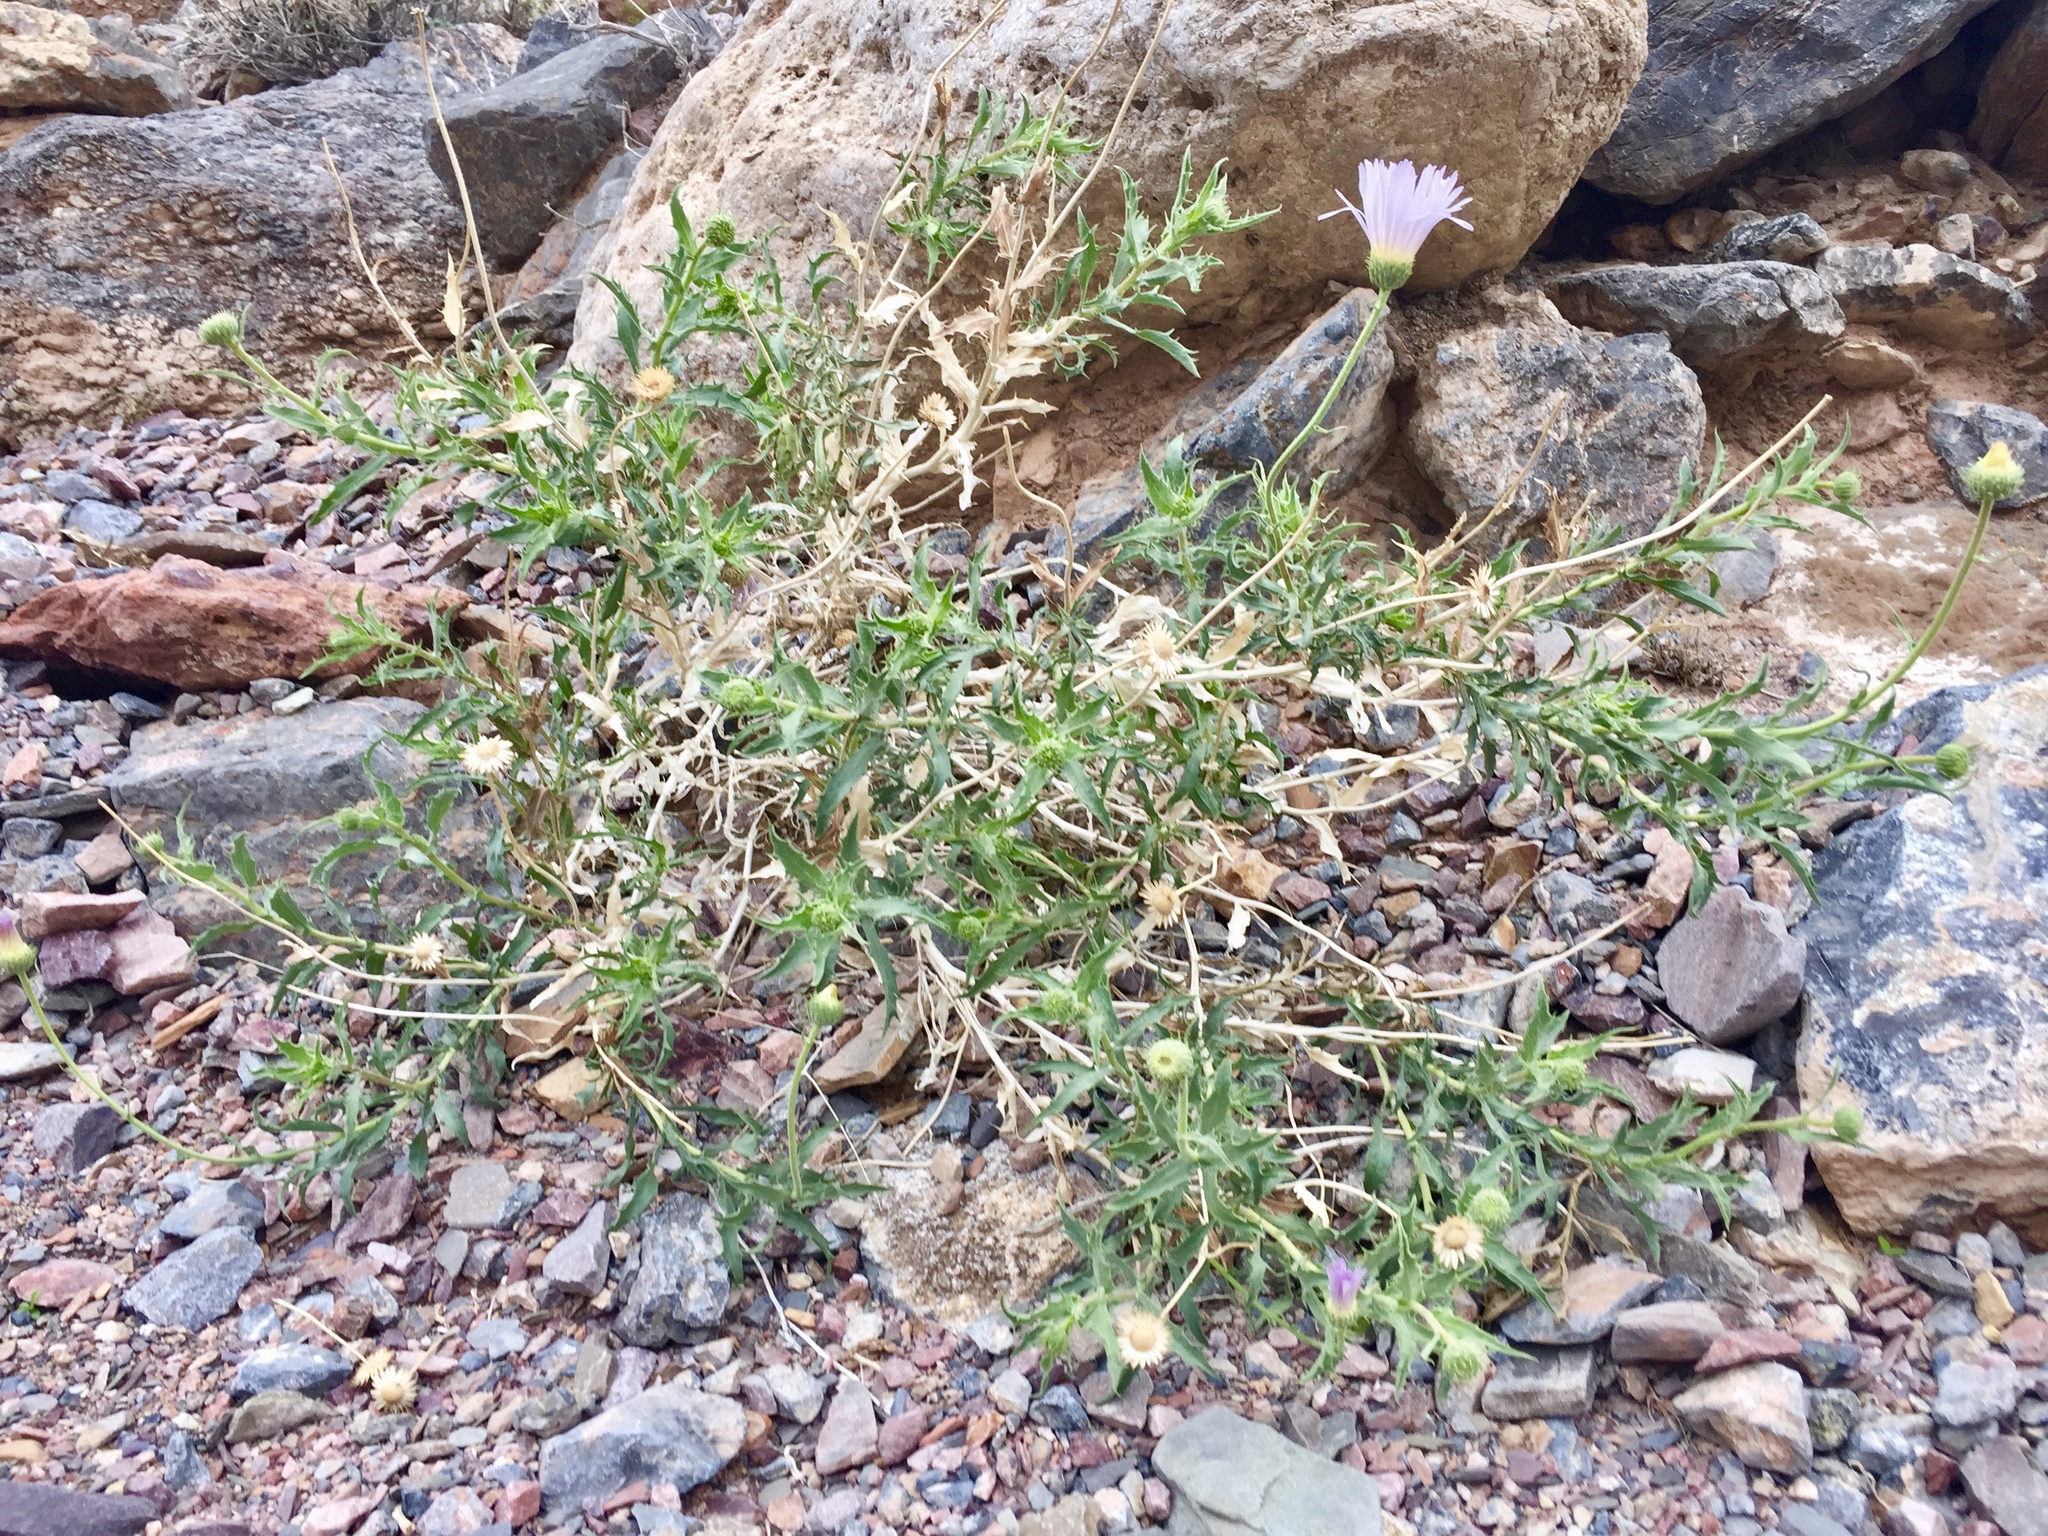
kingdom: Plantae
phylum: Tracheophyta
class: Magnoliopsida
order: Asterales
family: Asteraceae
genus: Xylorhiza
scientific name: Xylorhiza tortifolia
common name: Hurt-leaf woody-aster
